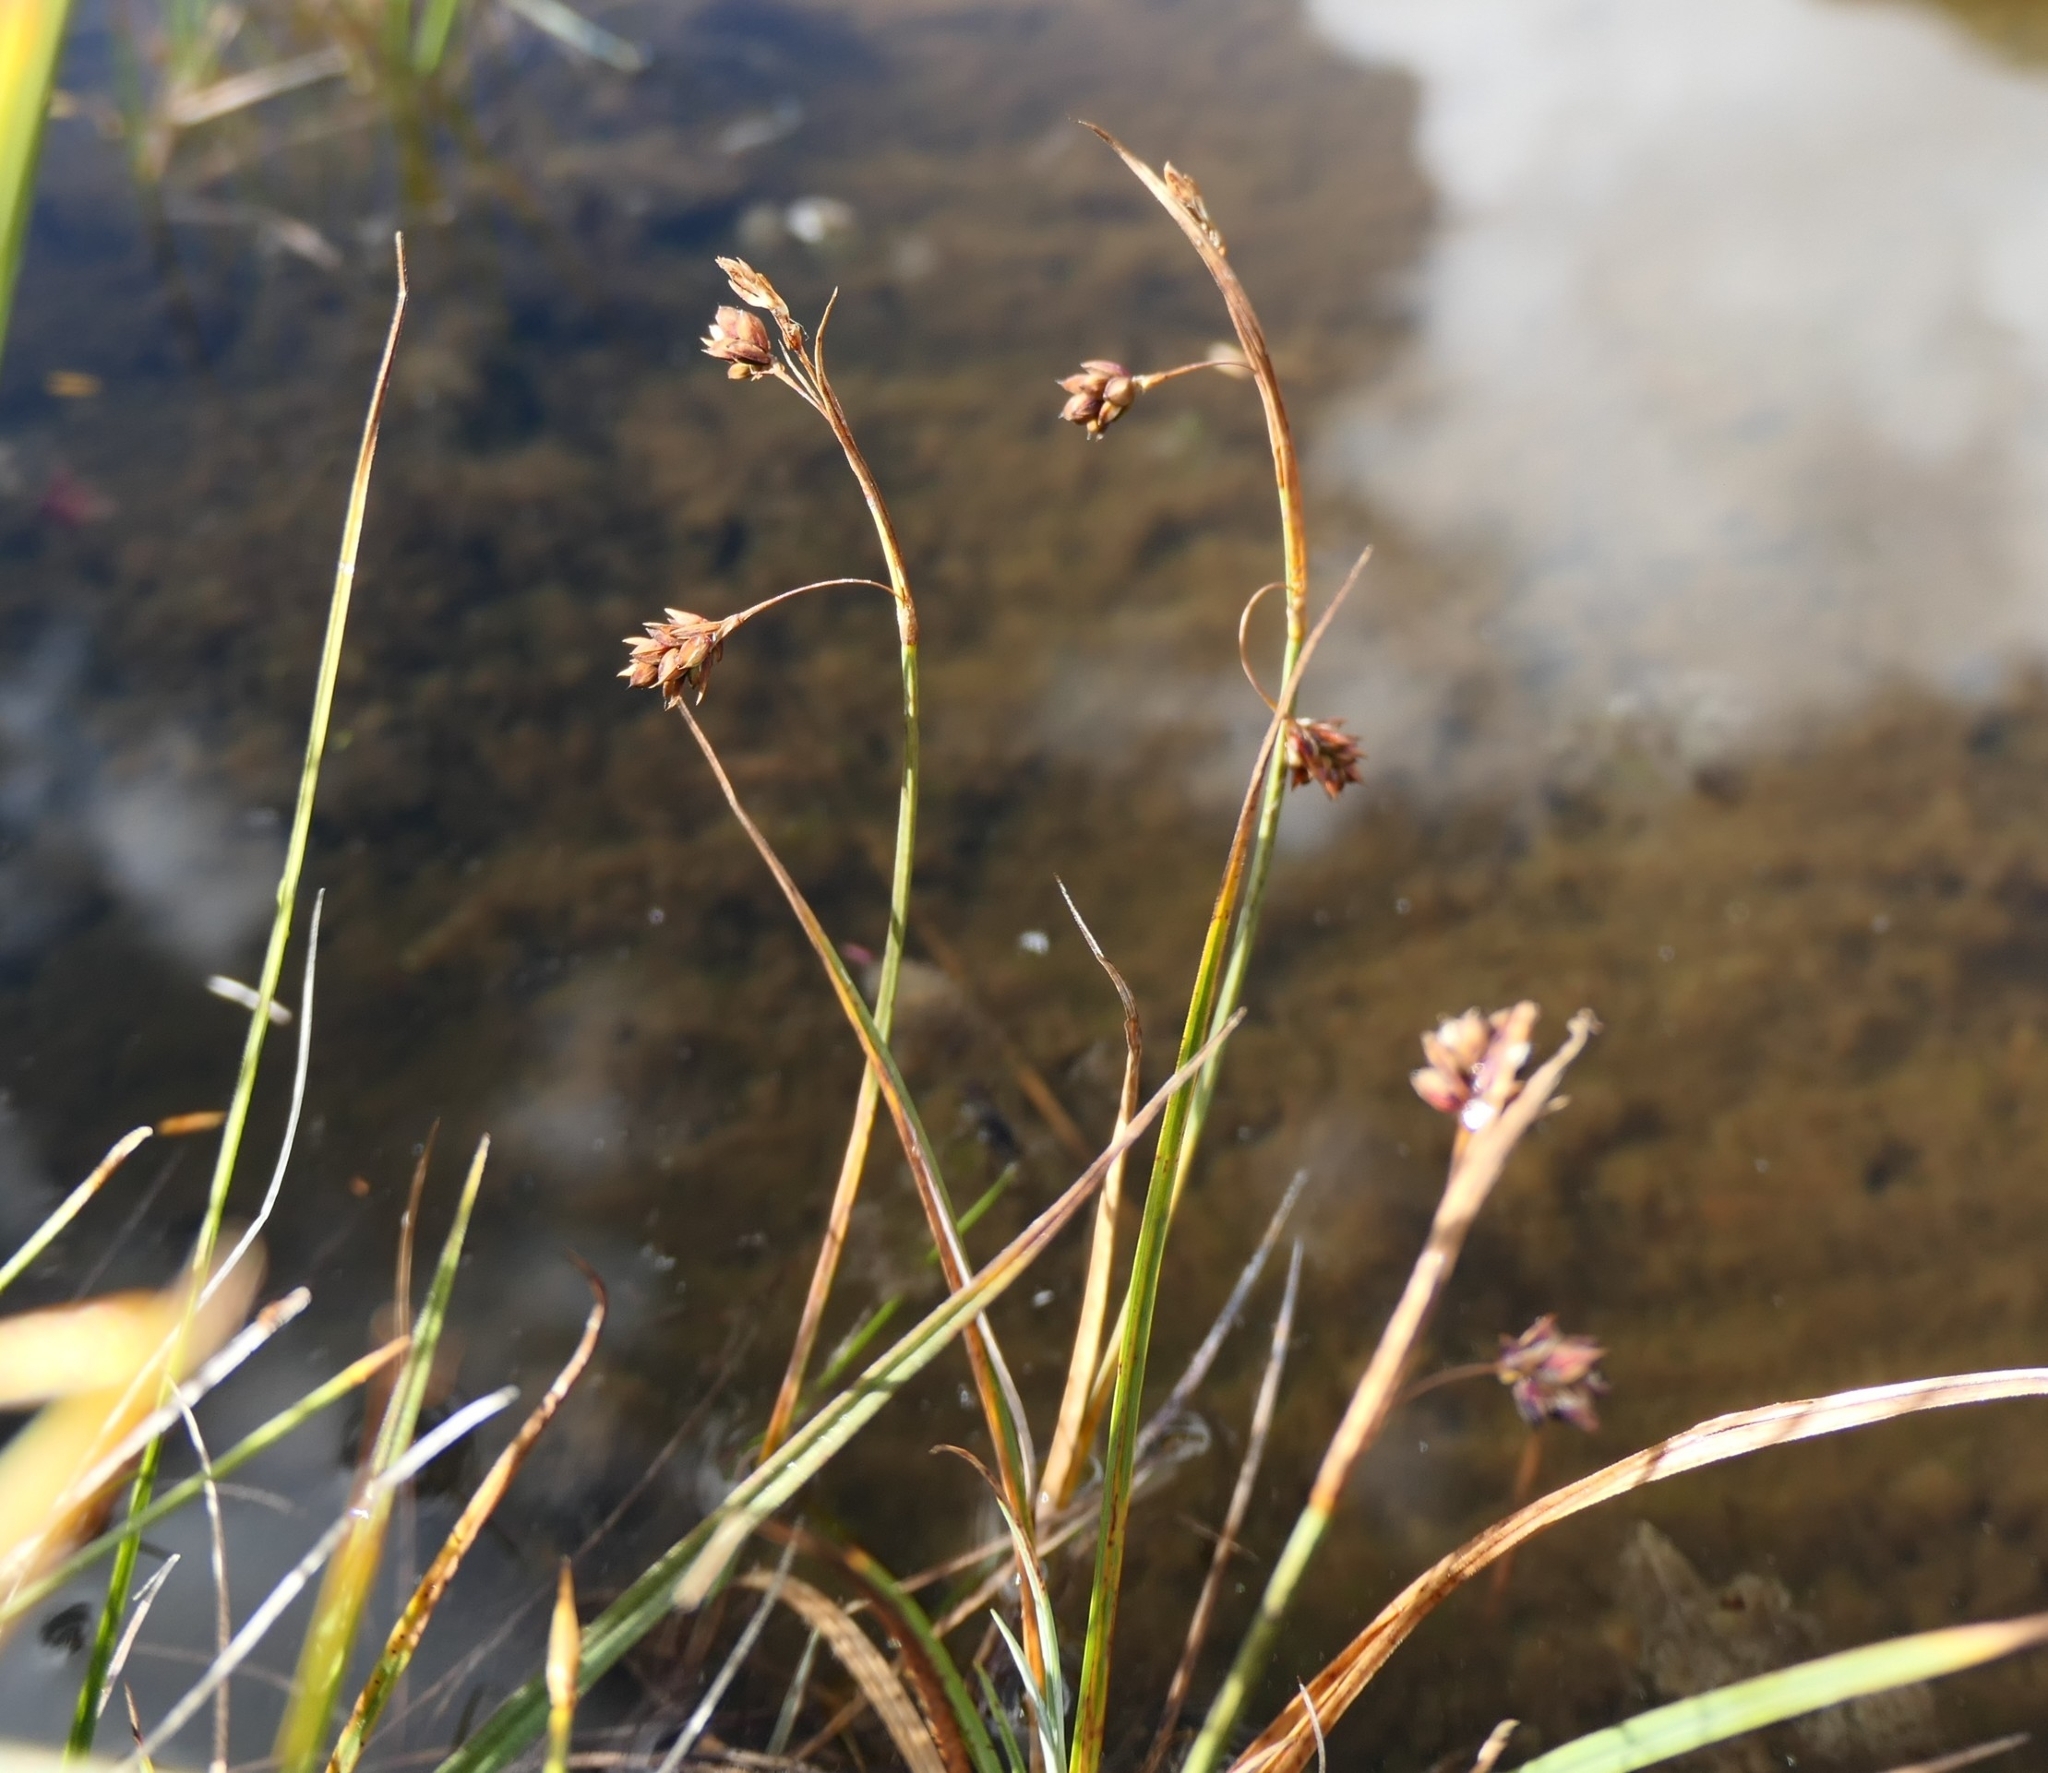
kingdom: Plantae
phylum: Tracheophyta
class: Liliopsida
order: Poales
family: Cyperaceae
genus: Carex
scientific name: Carex limosa
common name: Bog sedge
